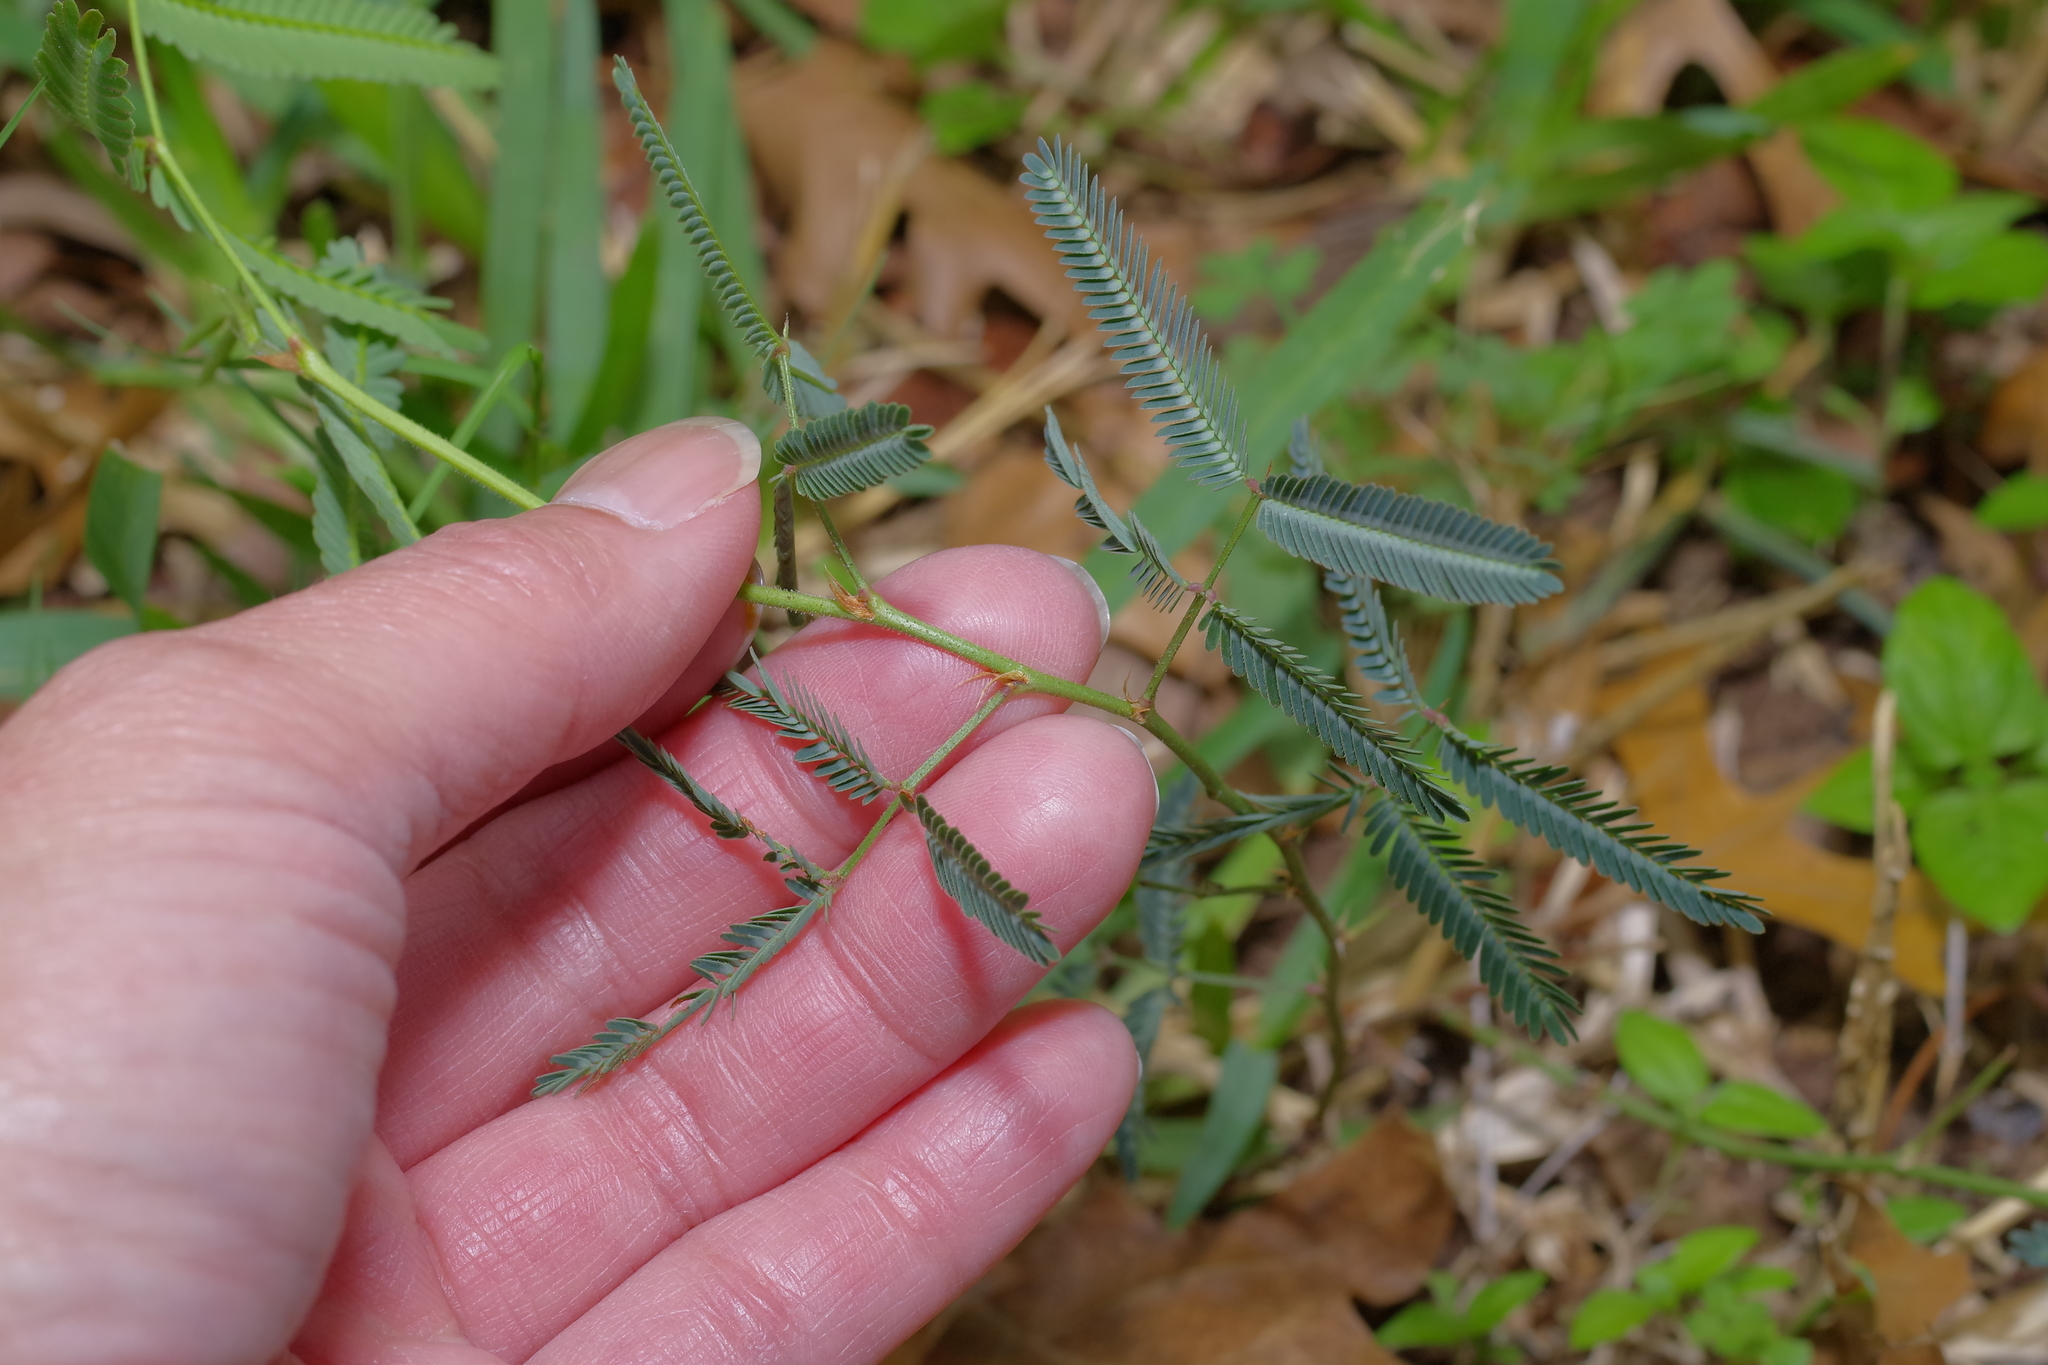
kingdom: Plantae
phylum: Tracheophyta
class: Magnoliopsida
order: Fabales
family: Fabaceae
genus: Neptunia
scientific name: Neptunia pubescens
